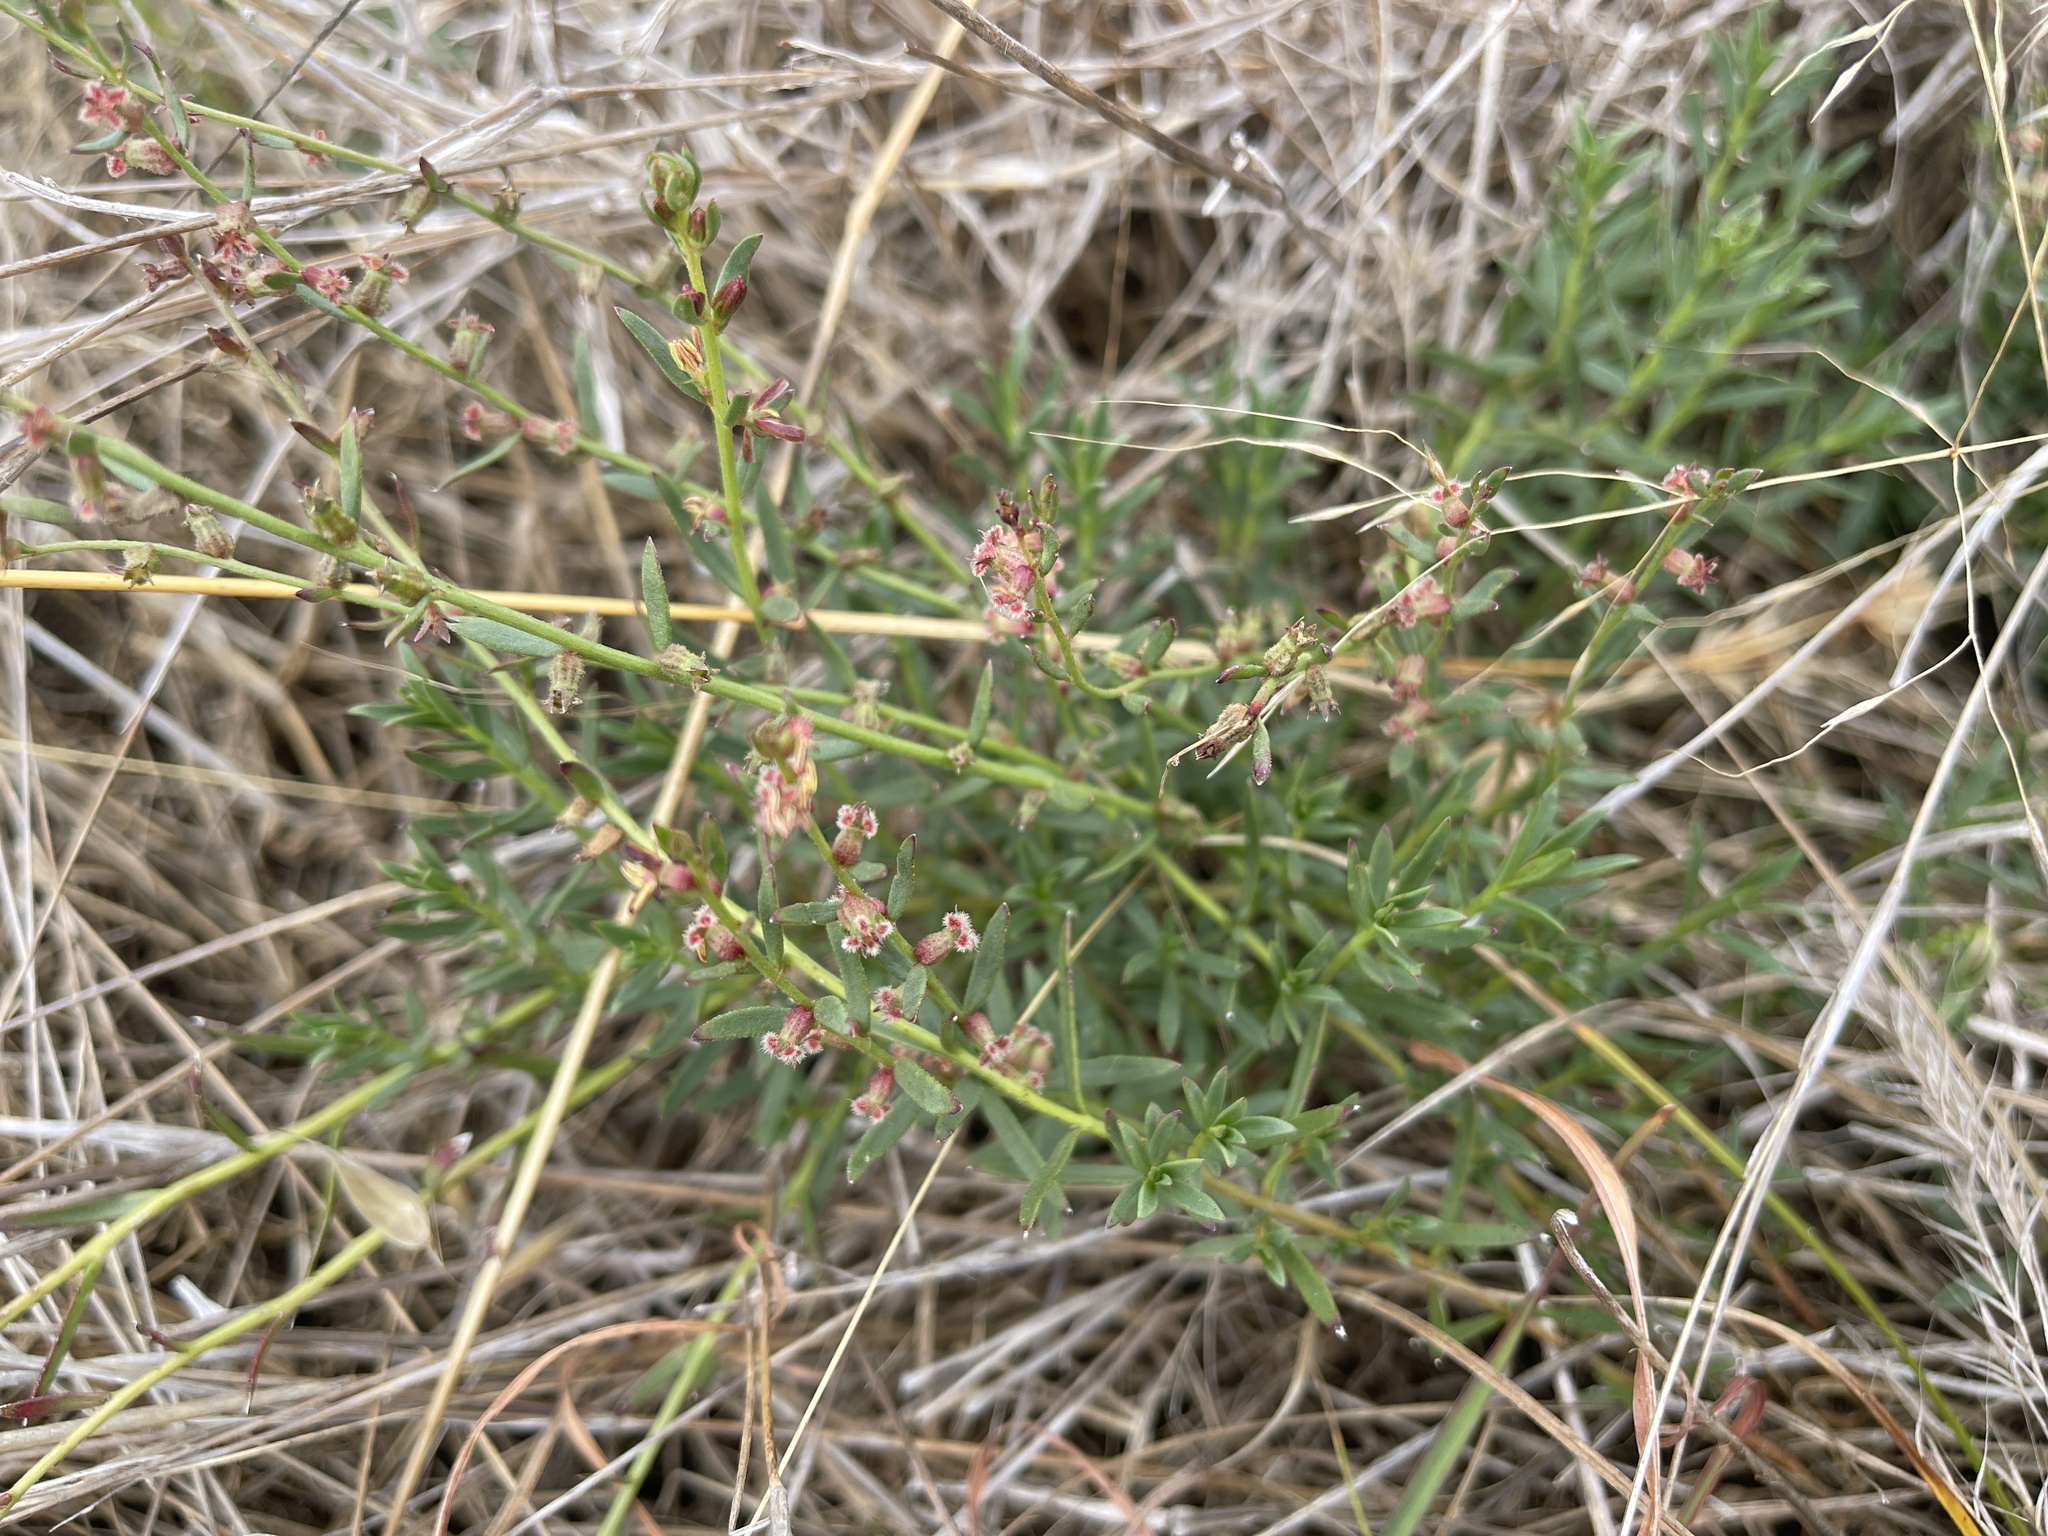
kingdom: Plantae
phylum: Tracheophyta
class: Magnoliopsida
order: Solanales
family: Convolvulaceae
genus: Convolvulus
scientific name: Convolvulus angustissimus
